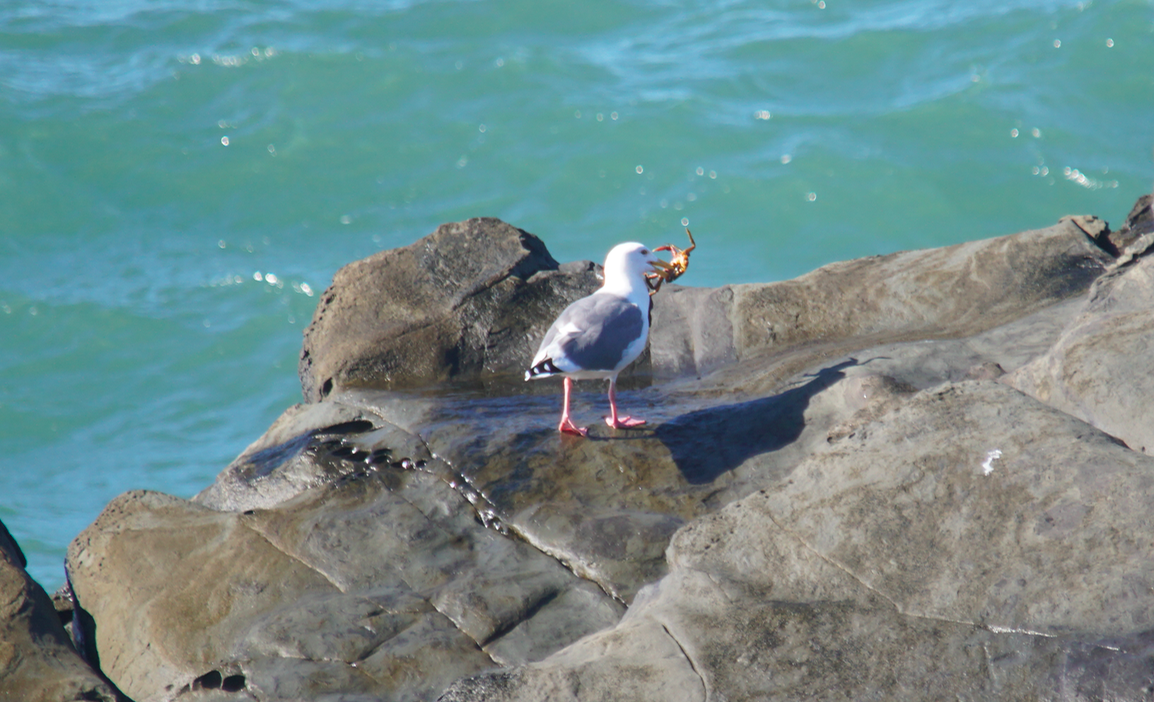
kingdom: Animalia
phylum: Chordata
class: Aves
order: Charadriiformes
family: Laridae
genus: Larus
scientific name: Larus occidentalis
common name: Western gull
